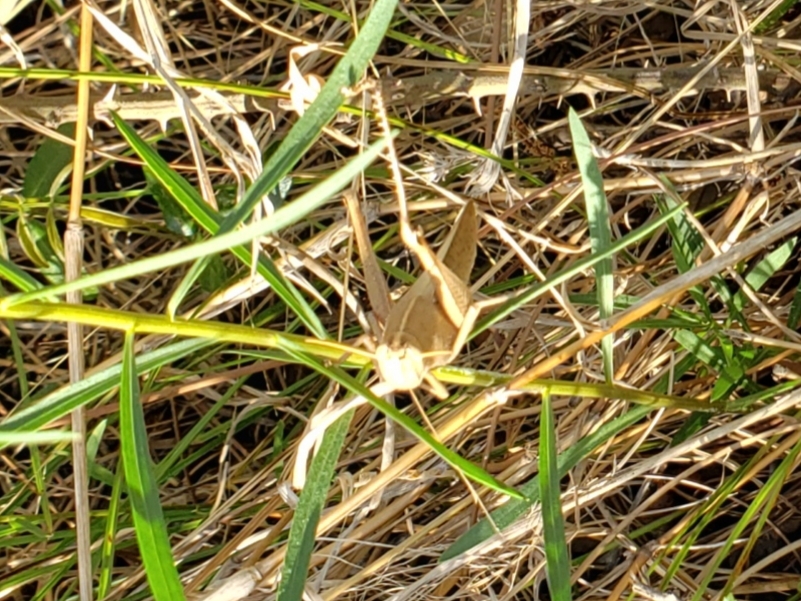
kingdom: Animalia
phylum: Arthropoda
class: Insecta
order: Orthoptera
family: Acrididae
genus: Schistocerca
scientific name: Schistocerca damnifica
